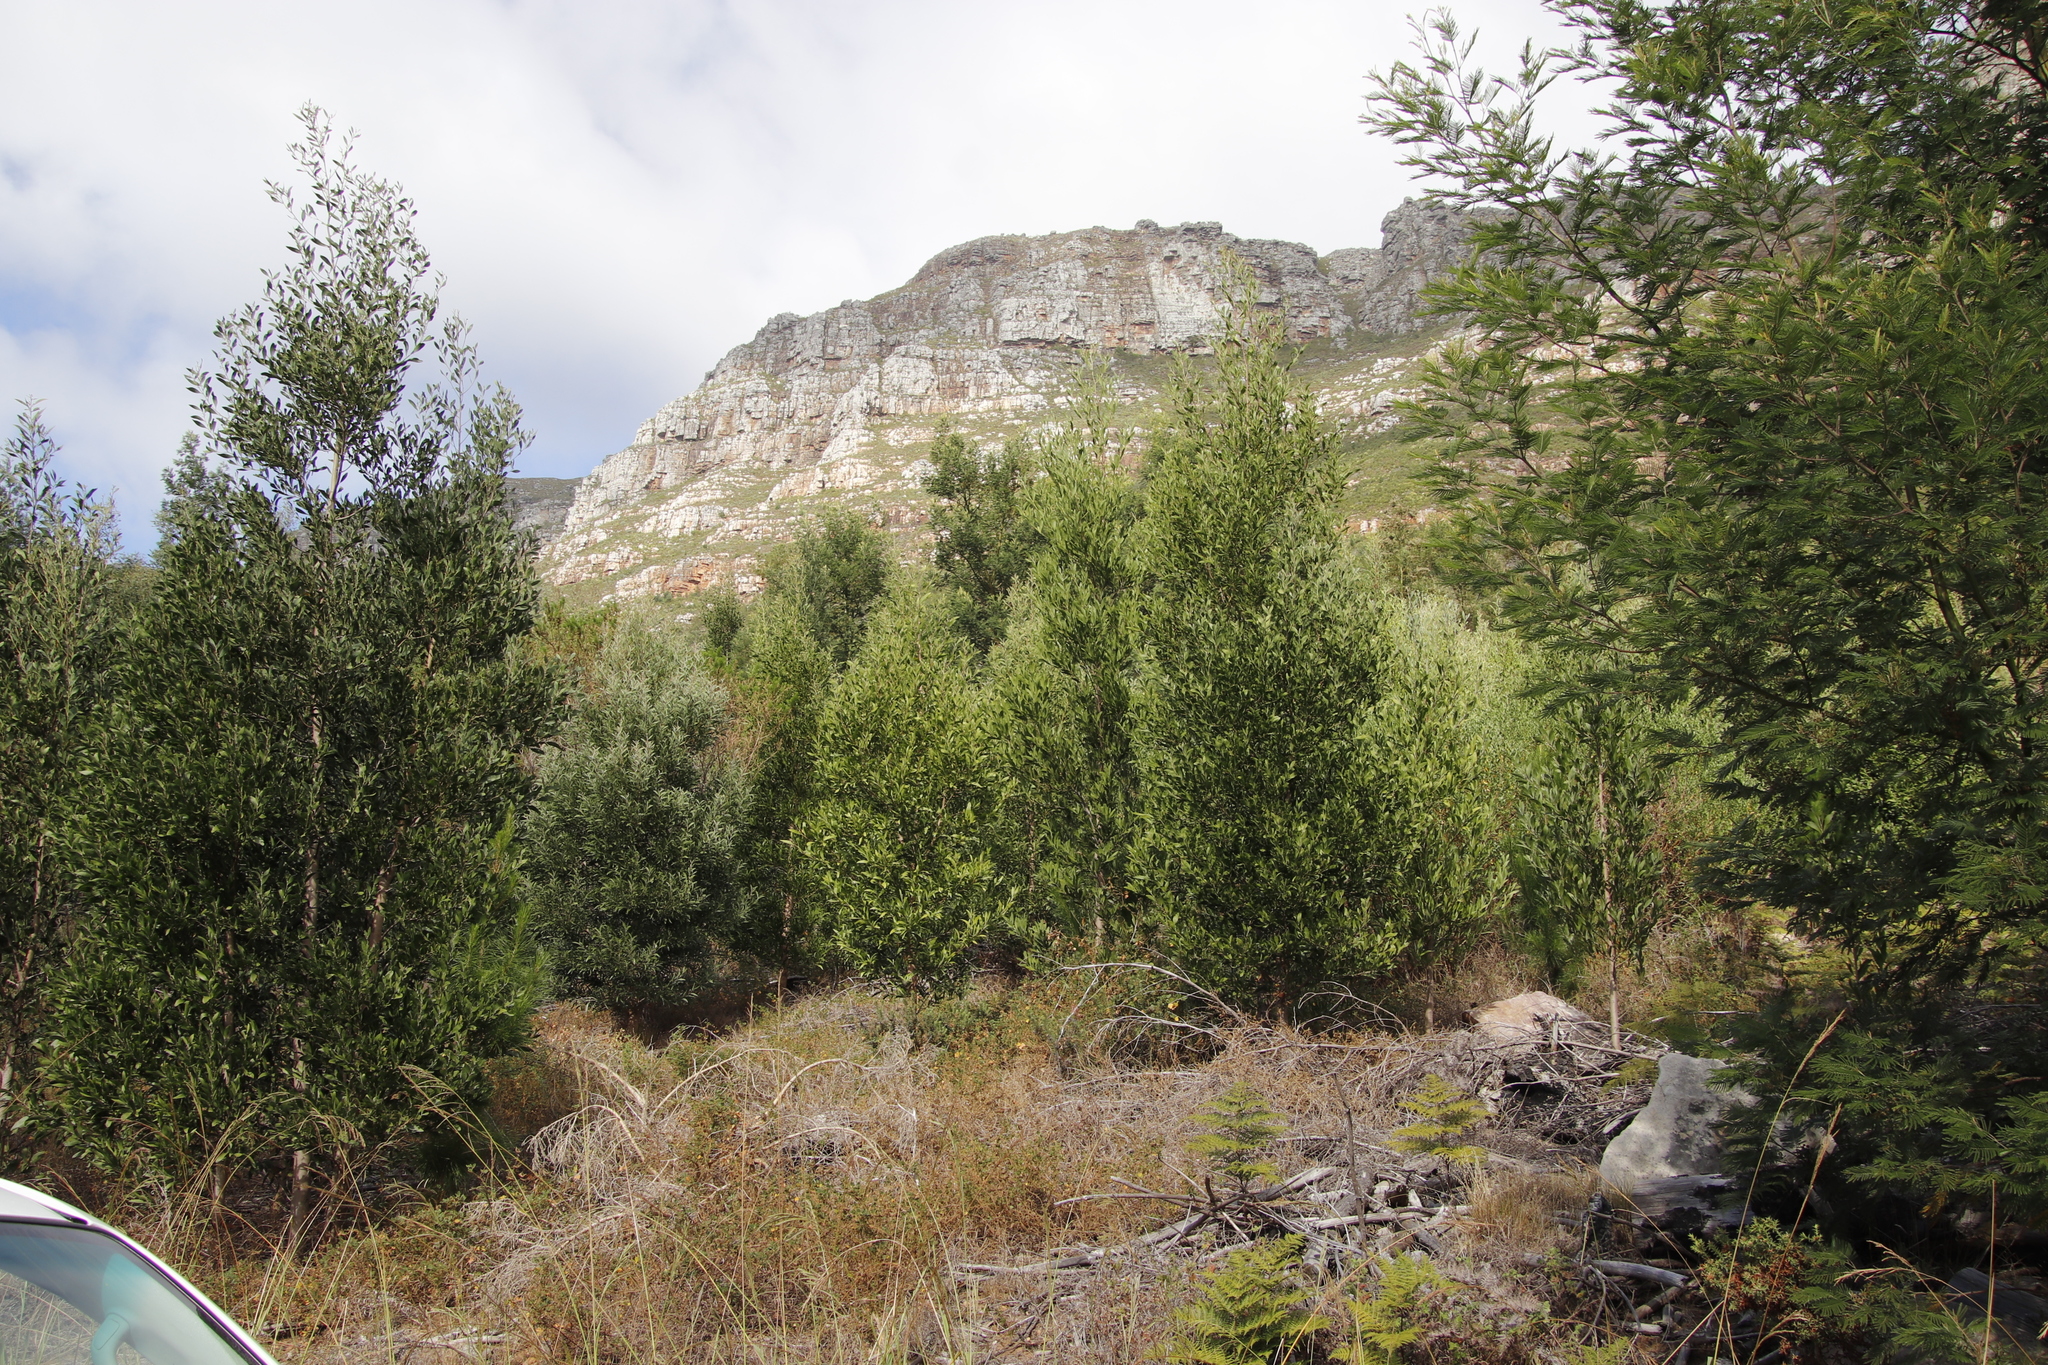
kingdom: Plantae
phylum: Tracheophyta
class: Magnoliopsida
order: Fabales
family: Fabaceae
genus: Acacia
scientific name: Acacia melanoxylon
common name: Blackwood
